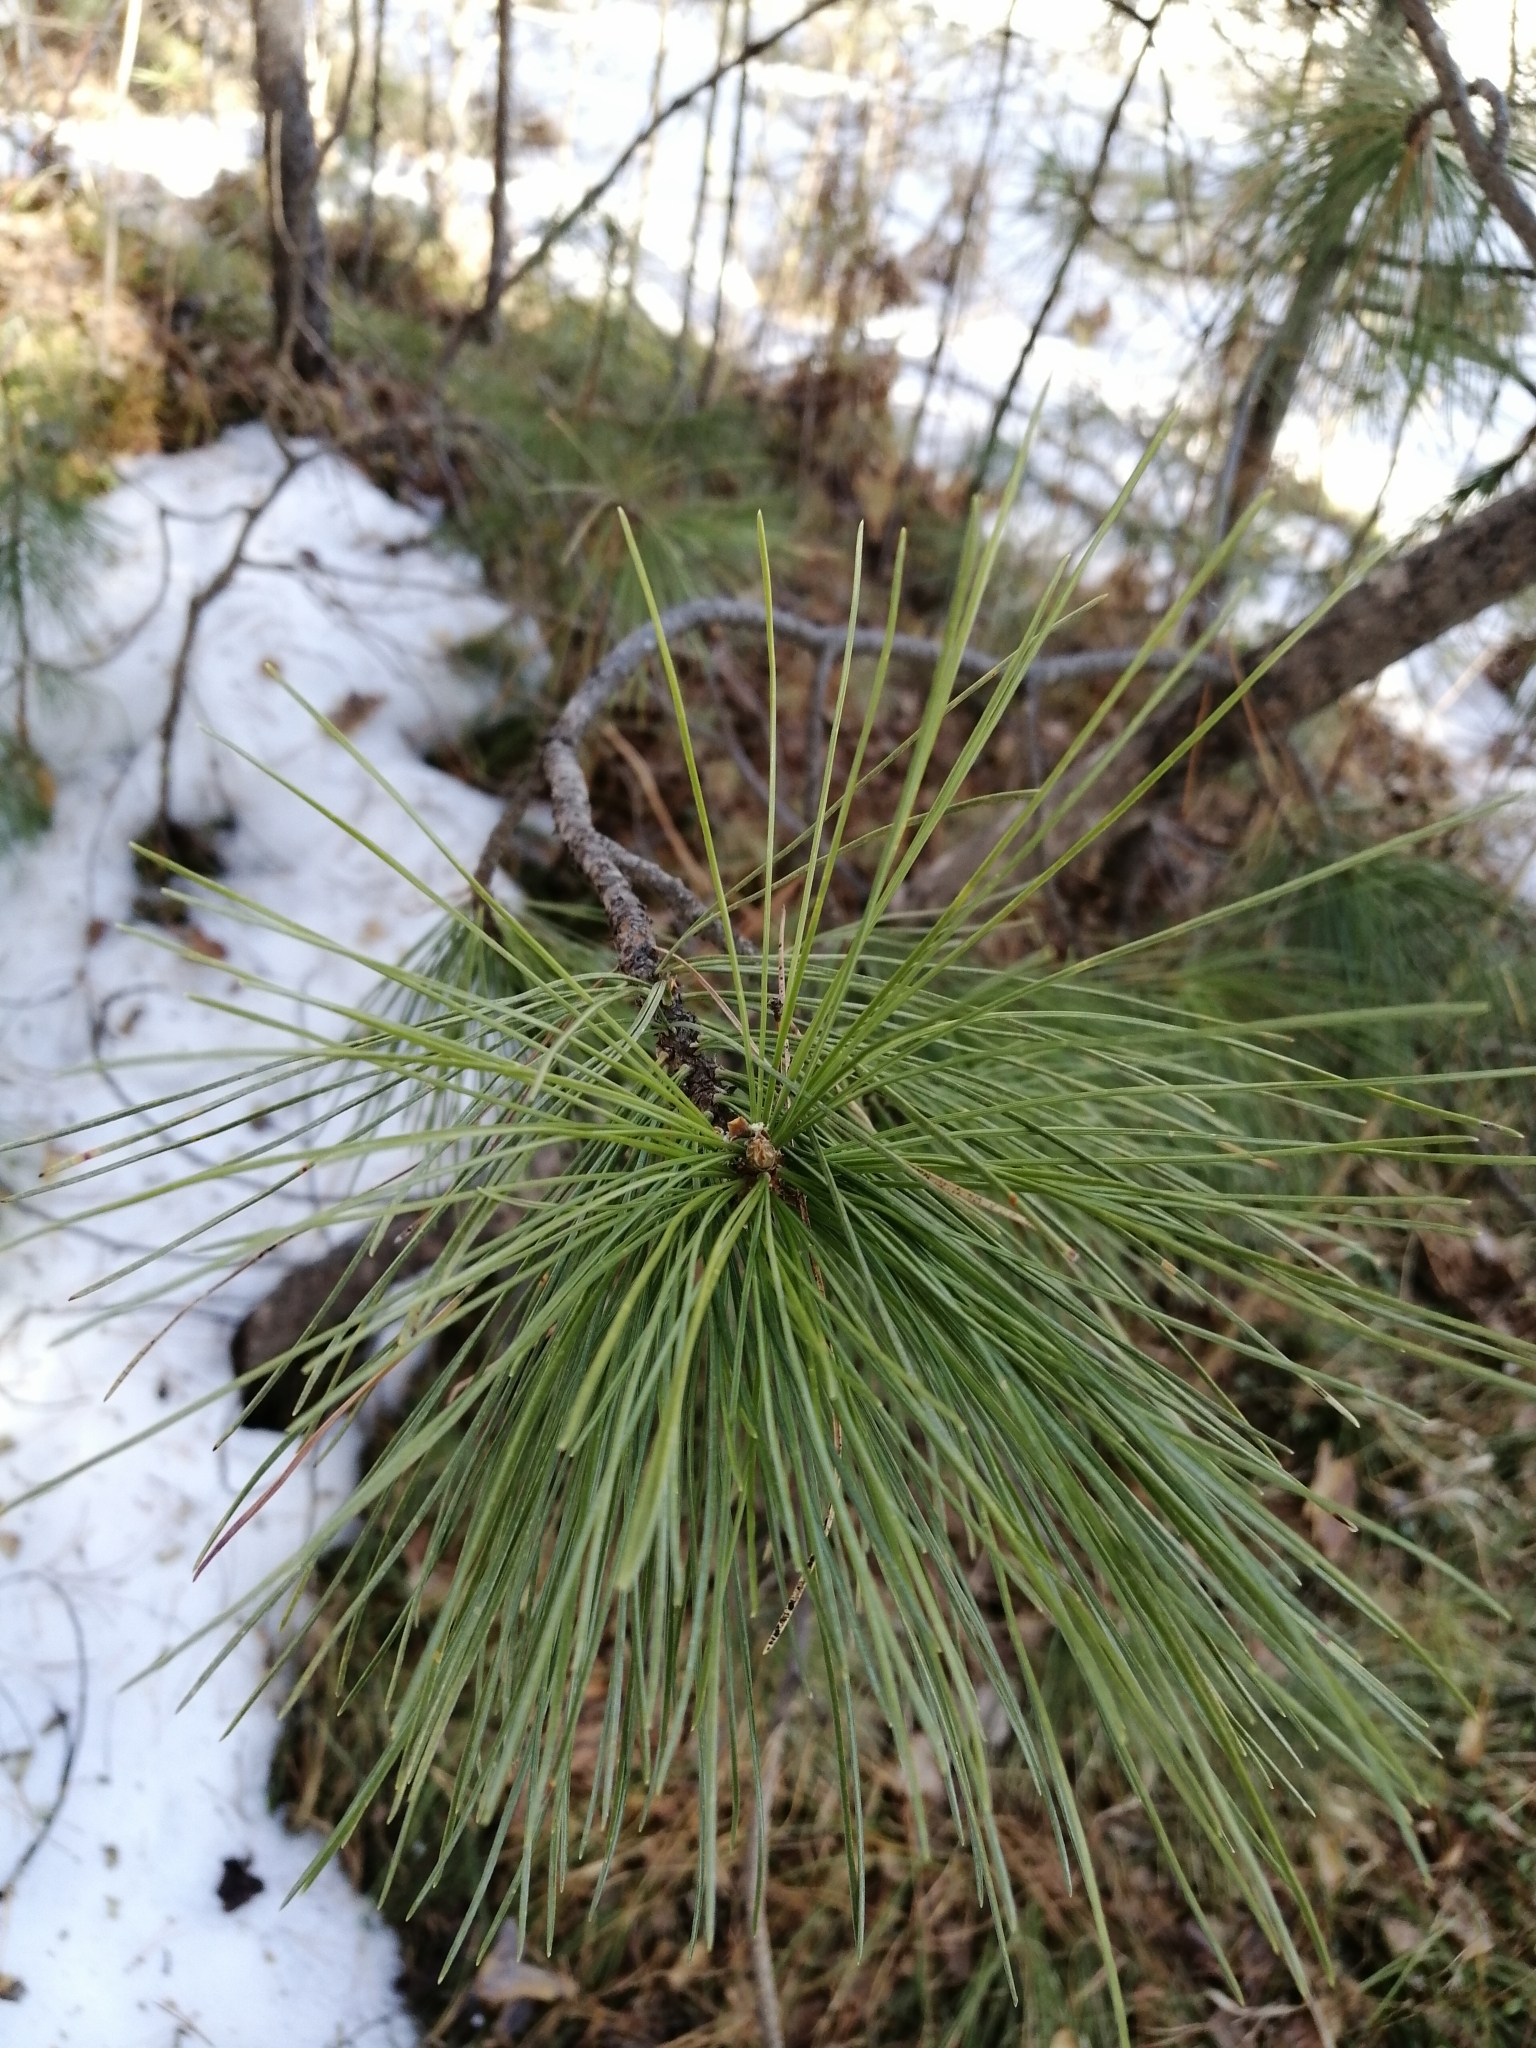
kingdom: Plantae
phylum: Tracheophyta
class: Pinopsida
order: Pinales
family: Pinaceae
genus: Pinus
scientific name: Pinus sibirica
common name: Siberian pine
